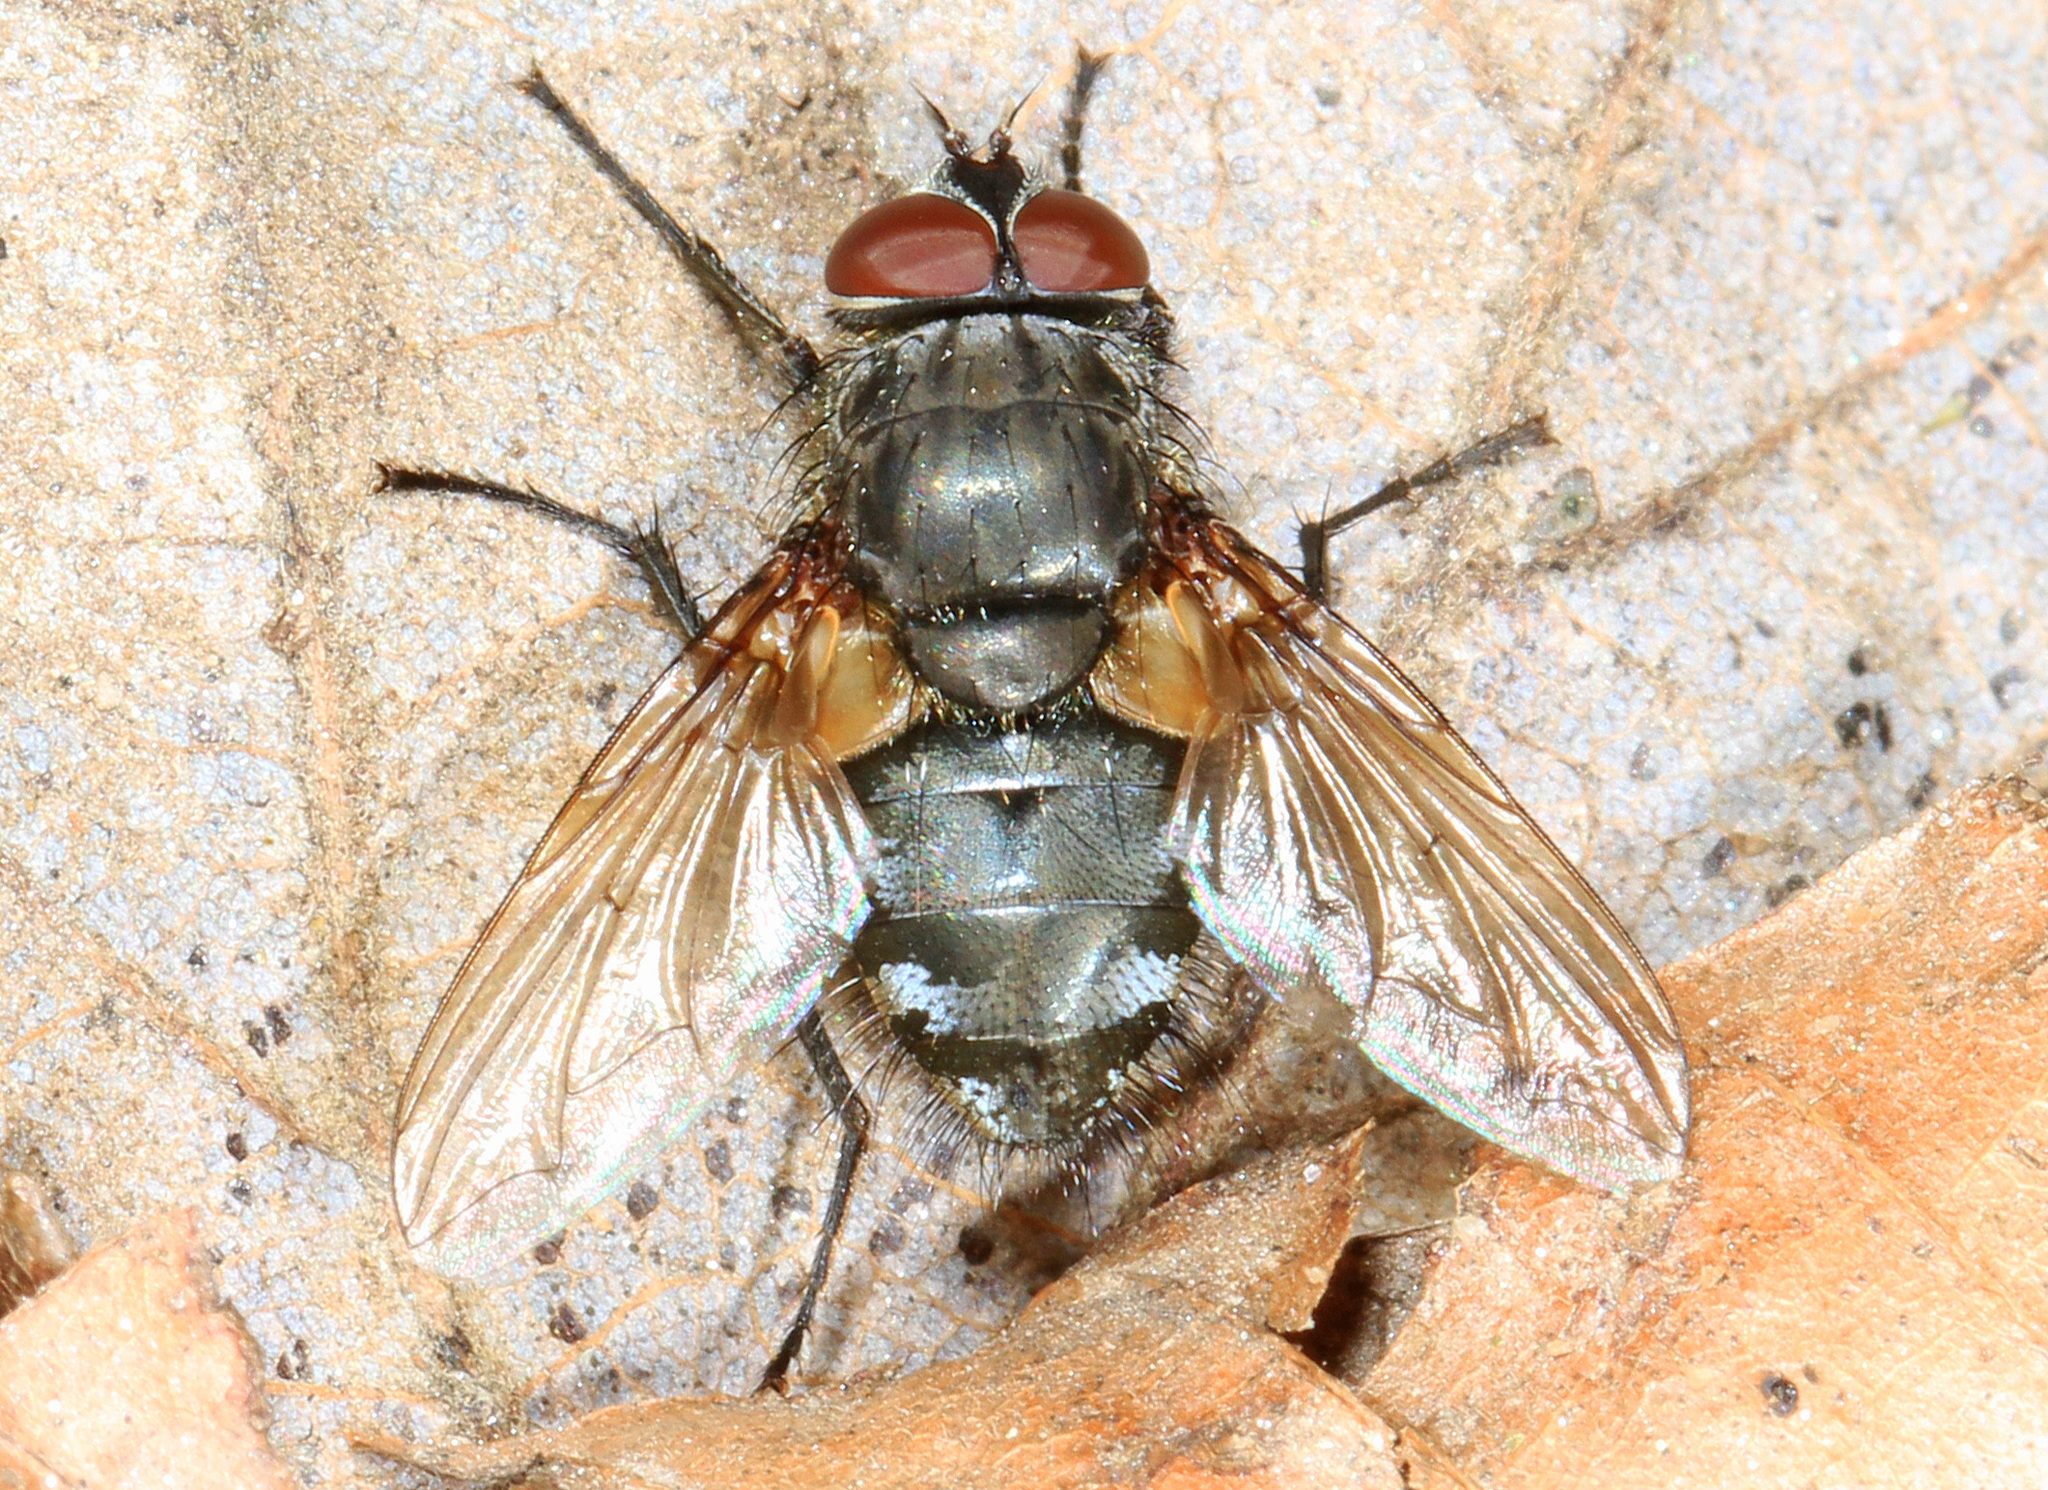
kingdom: Animalia
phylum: Arthropoda
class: Insecta
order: Diptera
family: Polleniidae
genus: Pollenia
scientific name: Pollenia
